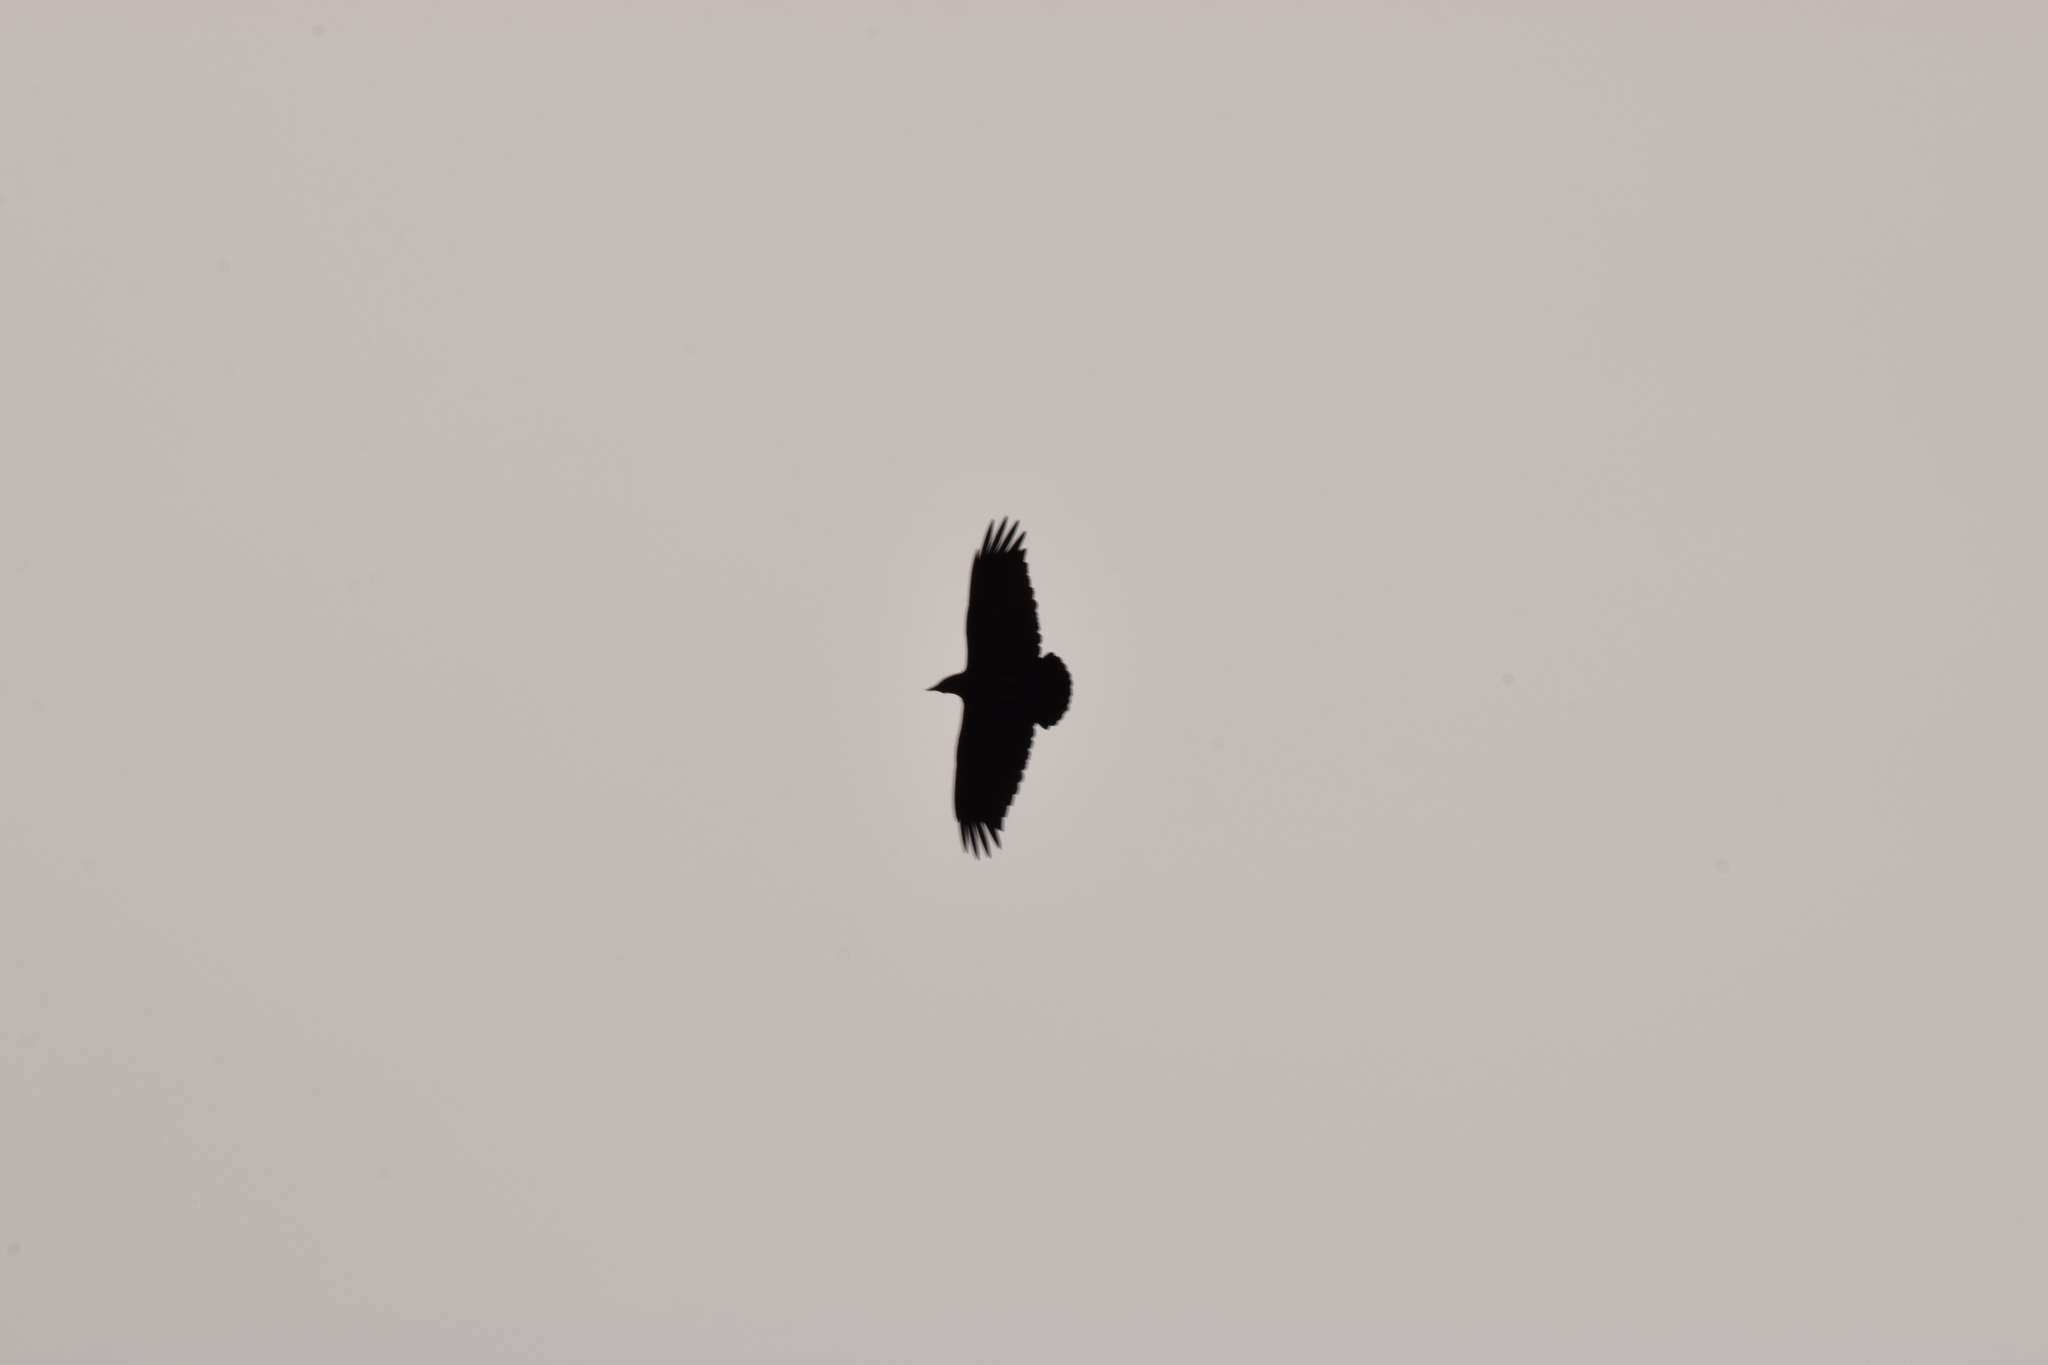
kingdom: Animalia
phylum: Chordata
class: Aves
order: Passeriformes
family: Corvidae
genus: Corvus
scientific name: Corvus rhipidurus
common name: Fan-tailed raven
